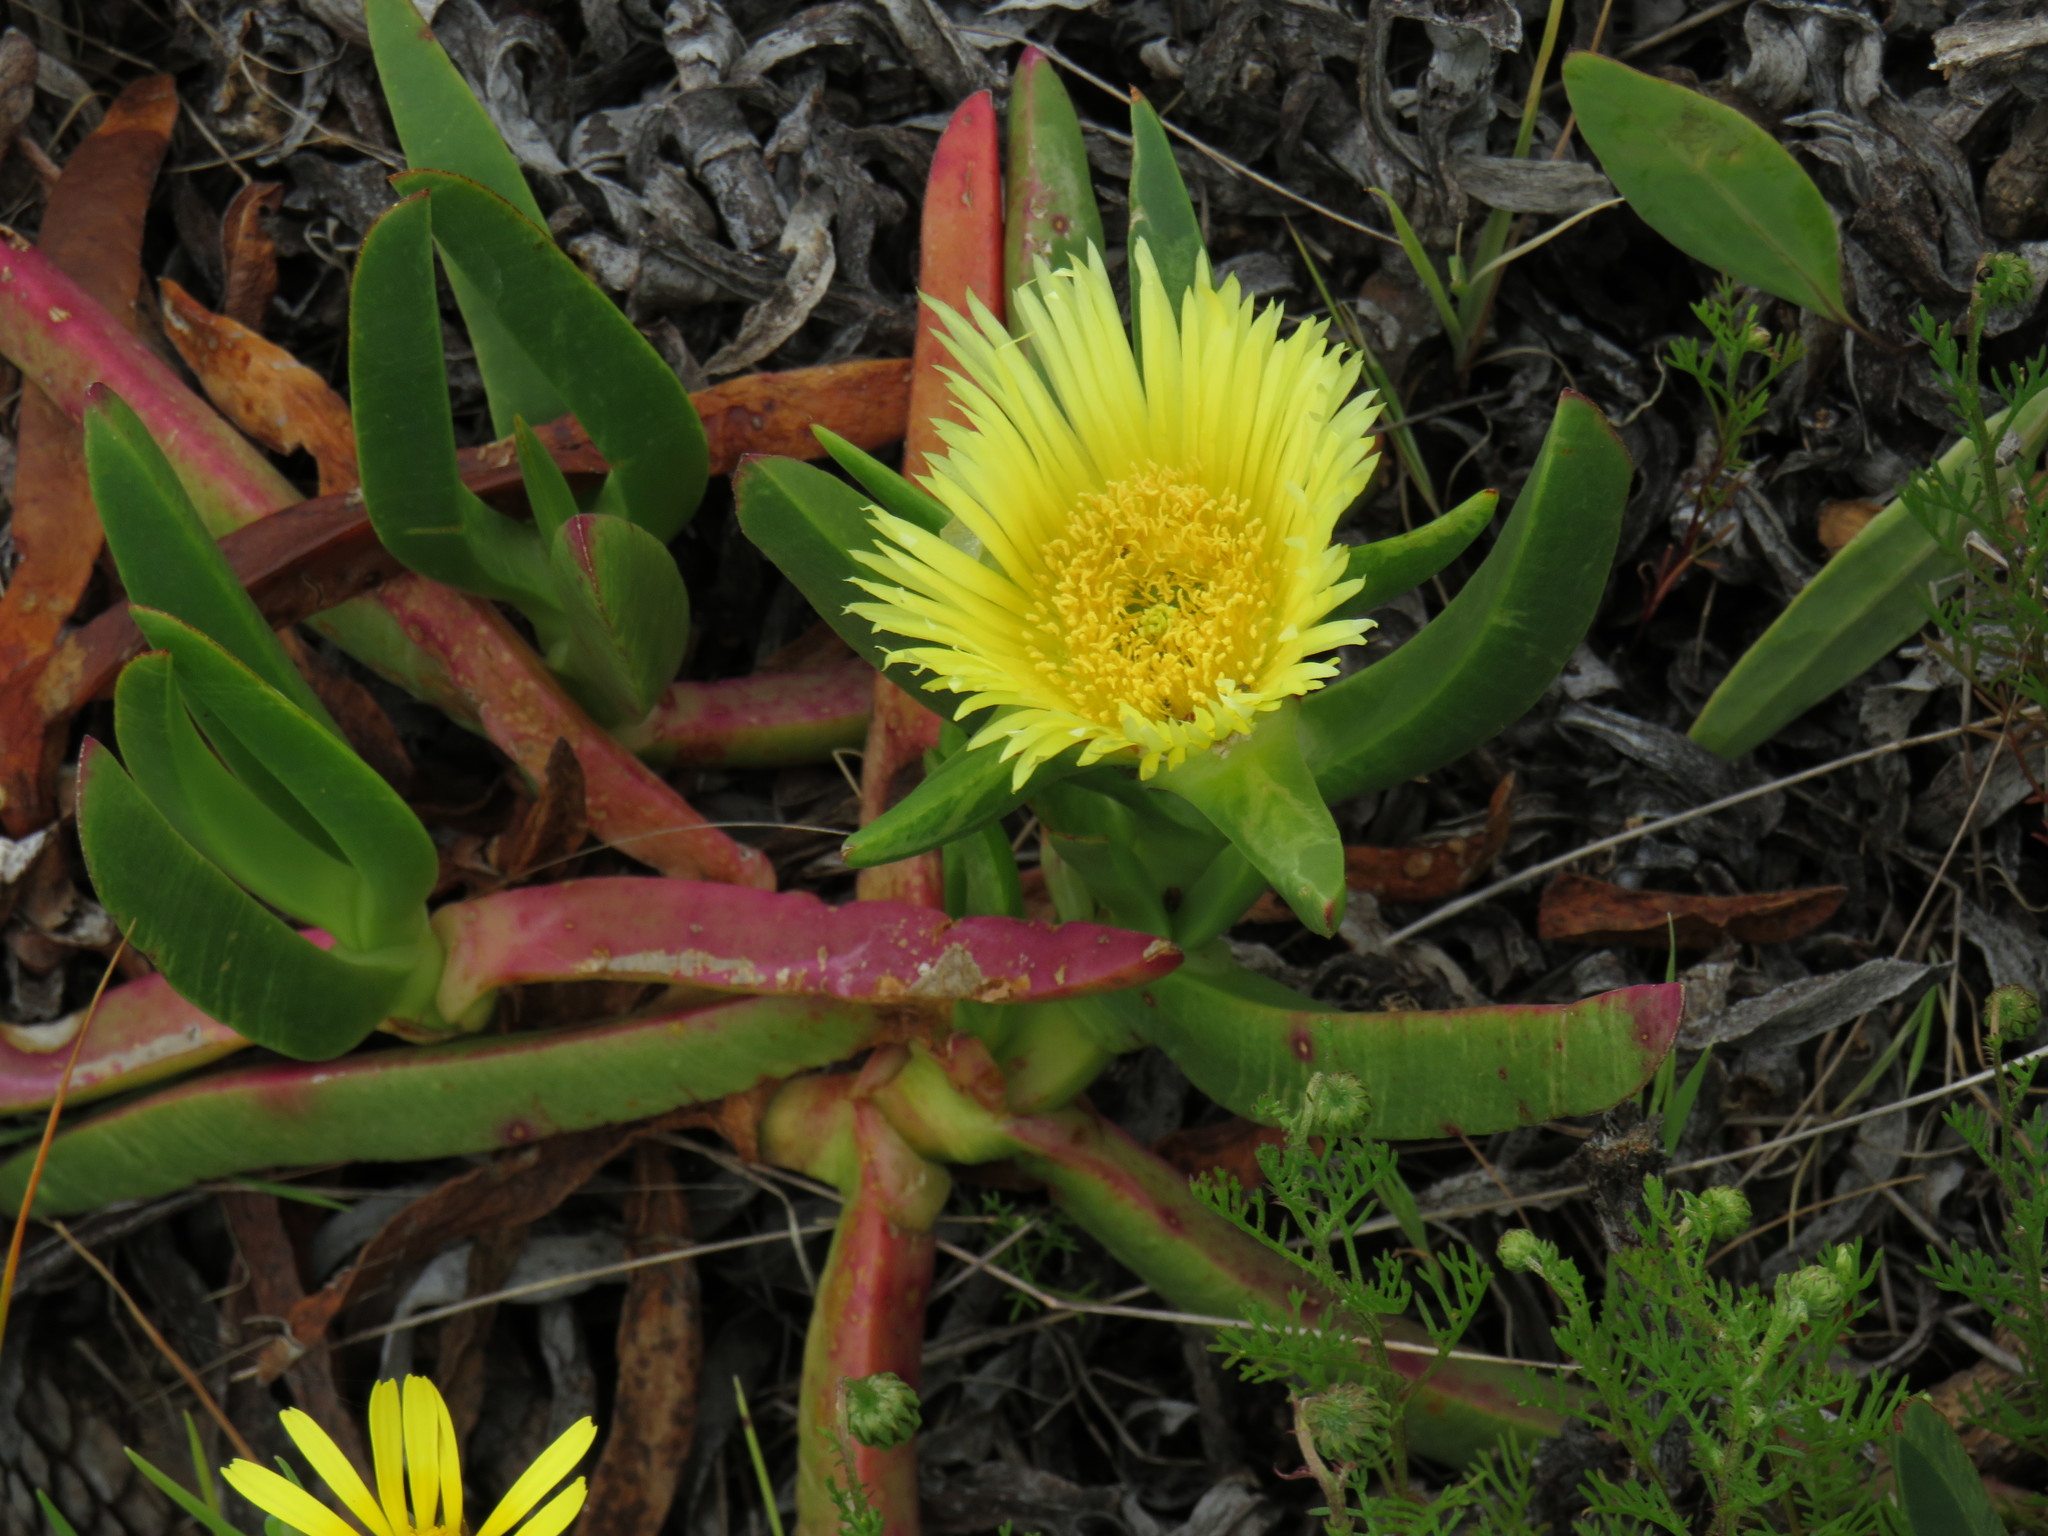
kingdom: Plantae
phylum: Tracheophyta
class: Magnoliopsida
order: Caryophyllales
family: Aizoaceae
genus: Carpobrotus
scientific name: Carpobrotus edulis
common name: Hottentot-fig
